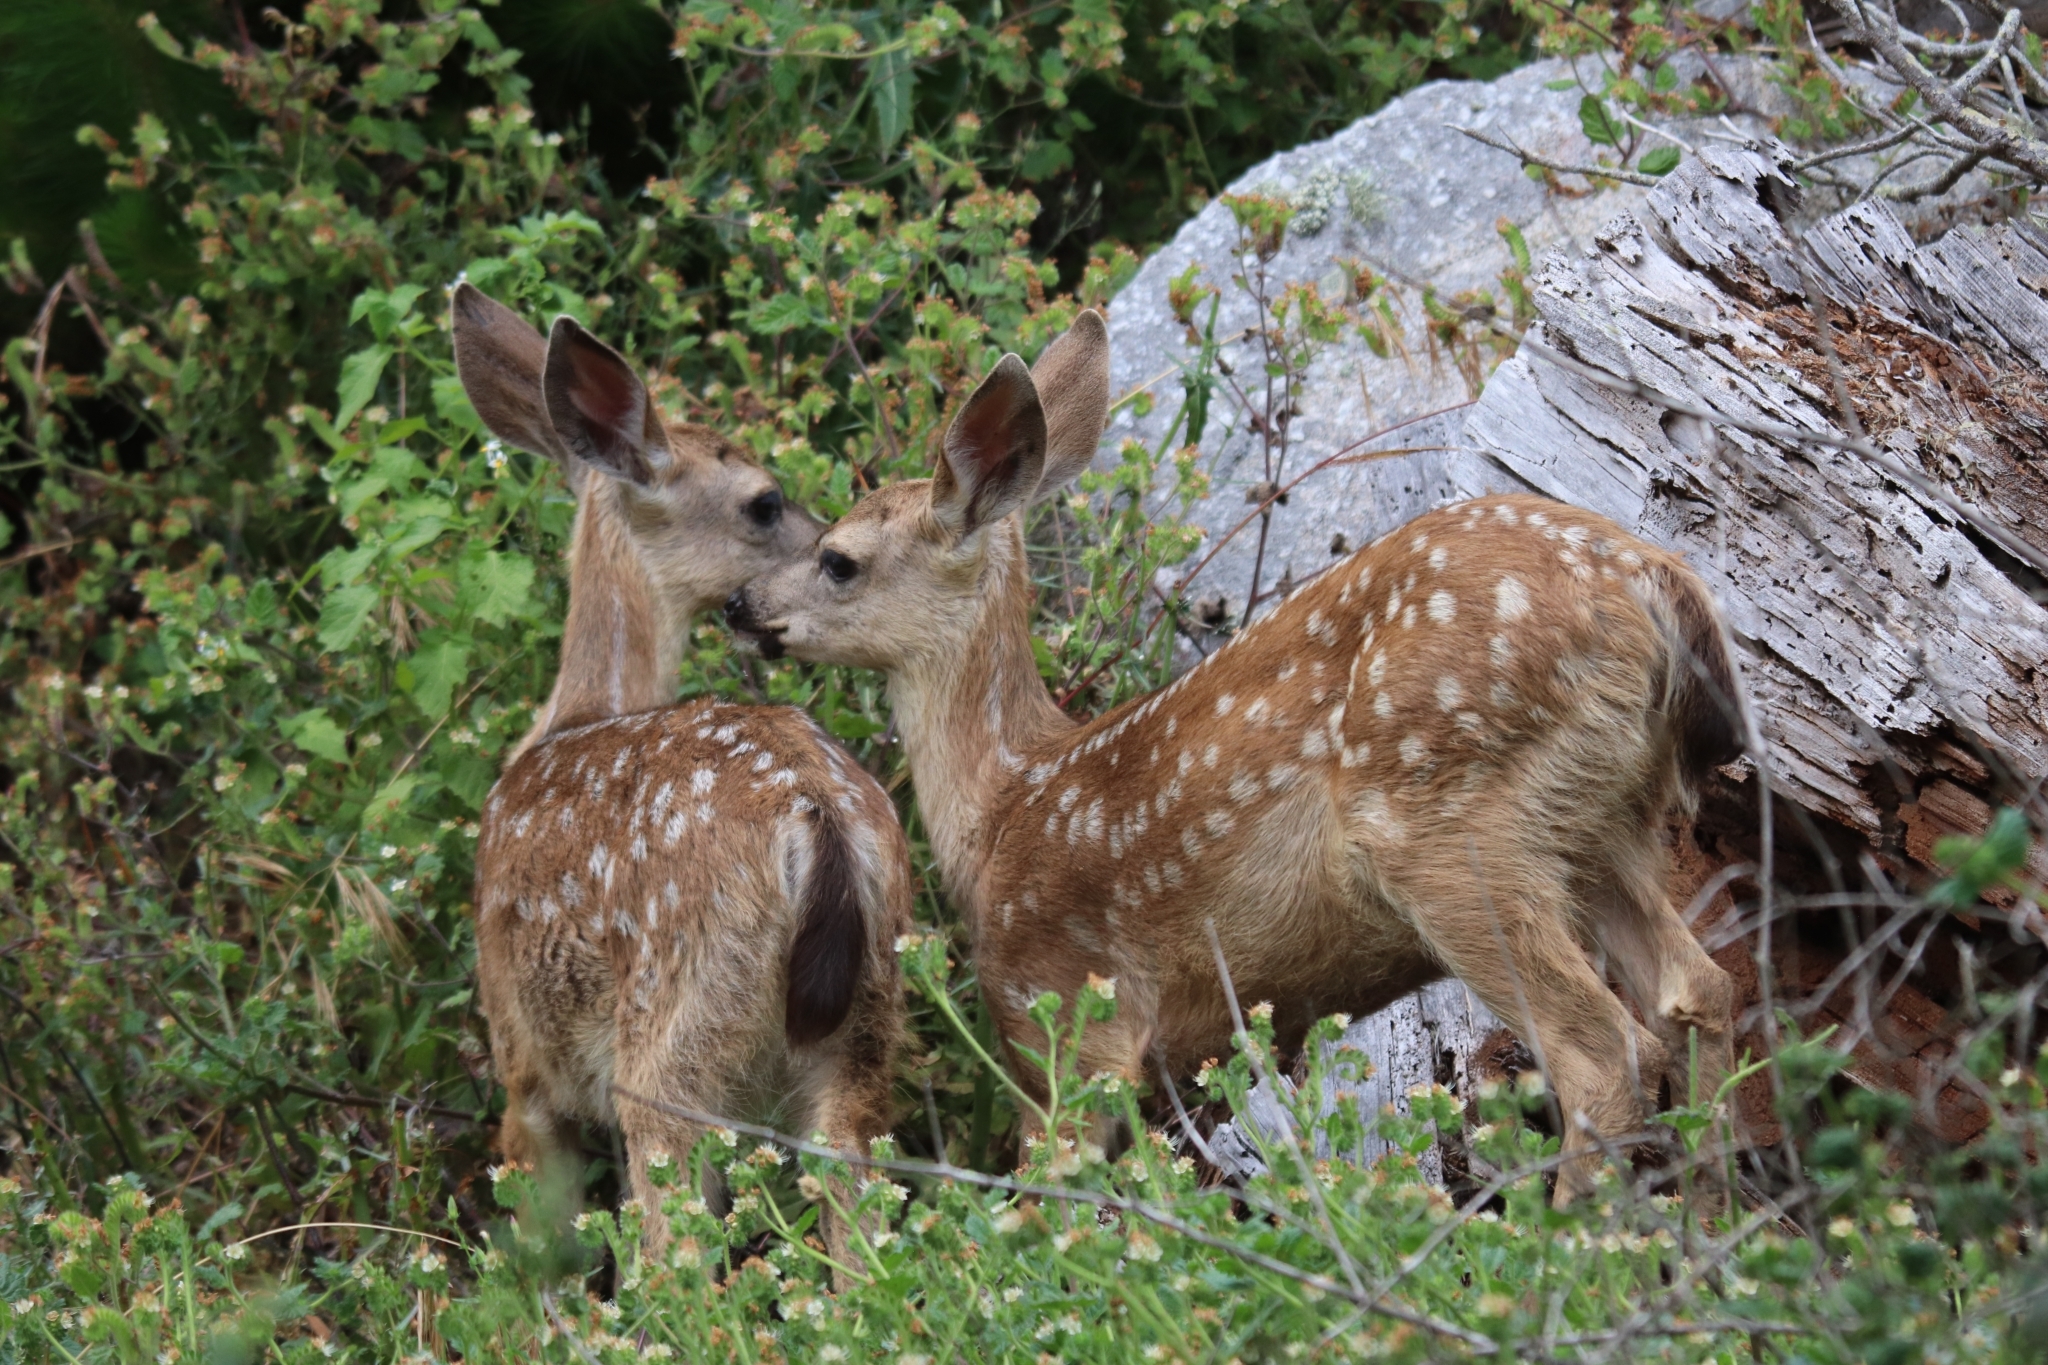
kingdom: Animalia
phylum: Chordata
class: Mammalia
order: Artiodactyla
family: Cervidae
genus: Odocoileus
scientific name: Odocoileus hemionus
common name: Mule deer
